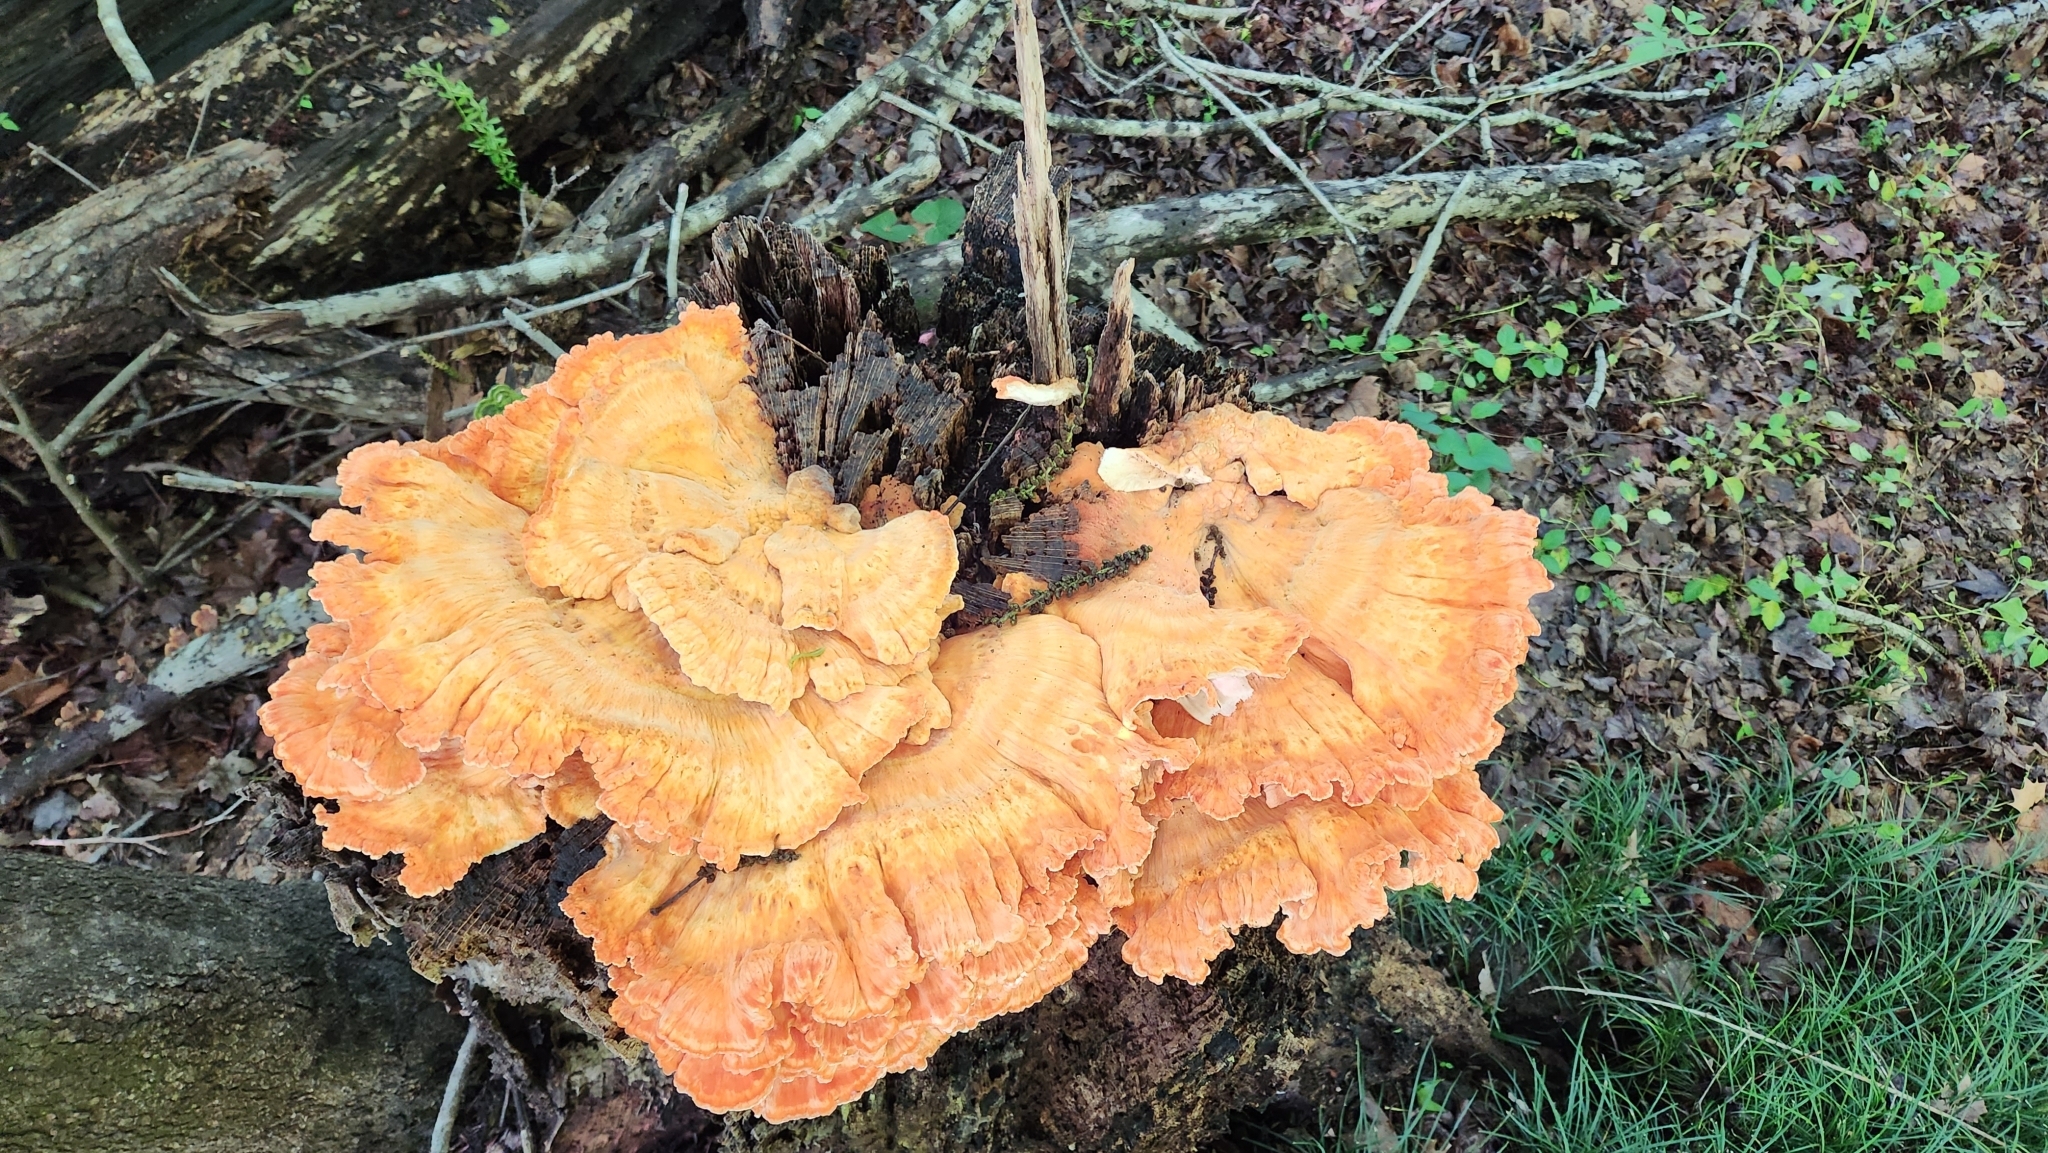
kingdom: Fungi
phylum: Basidiomycota
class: Agaricomycetes
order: Polyporales
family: Laetiporaceae
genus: Laetiporus
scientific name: Laetiporus sulphureus
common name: Chicken of the woods
